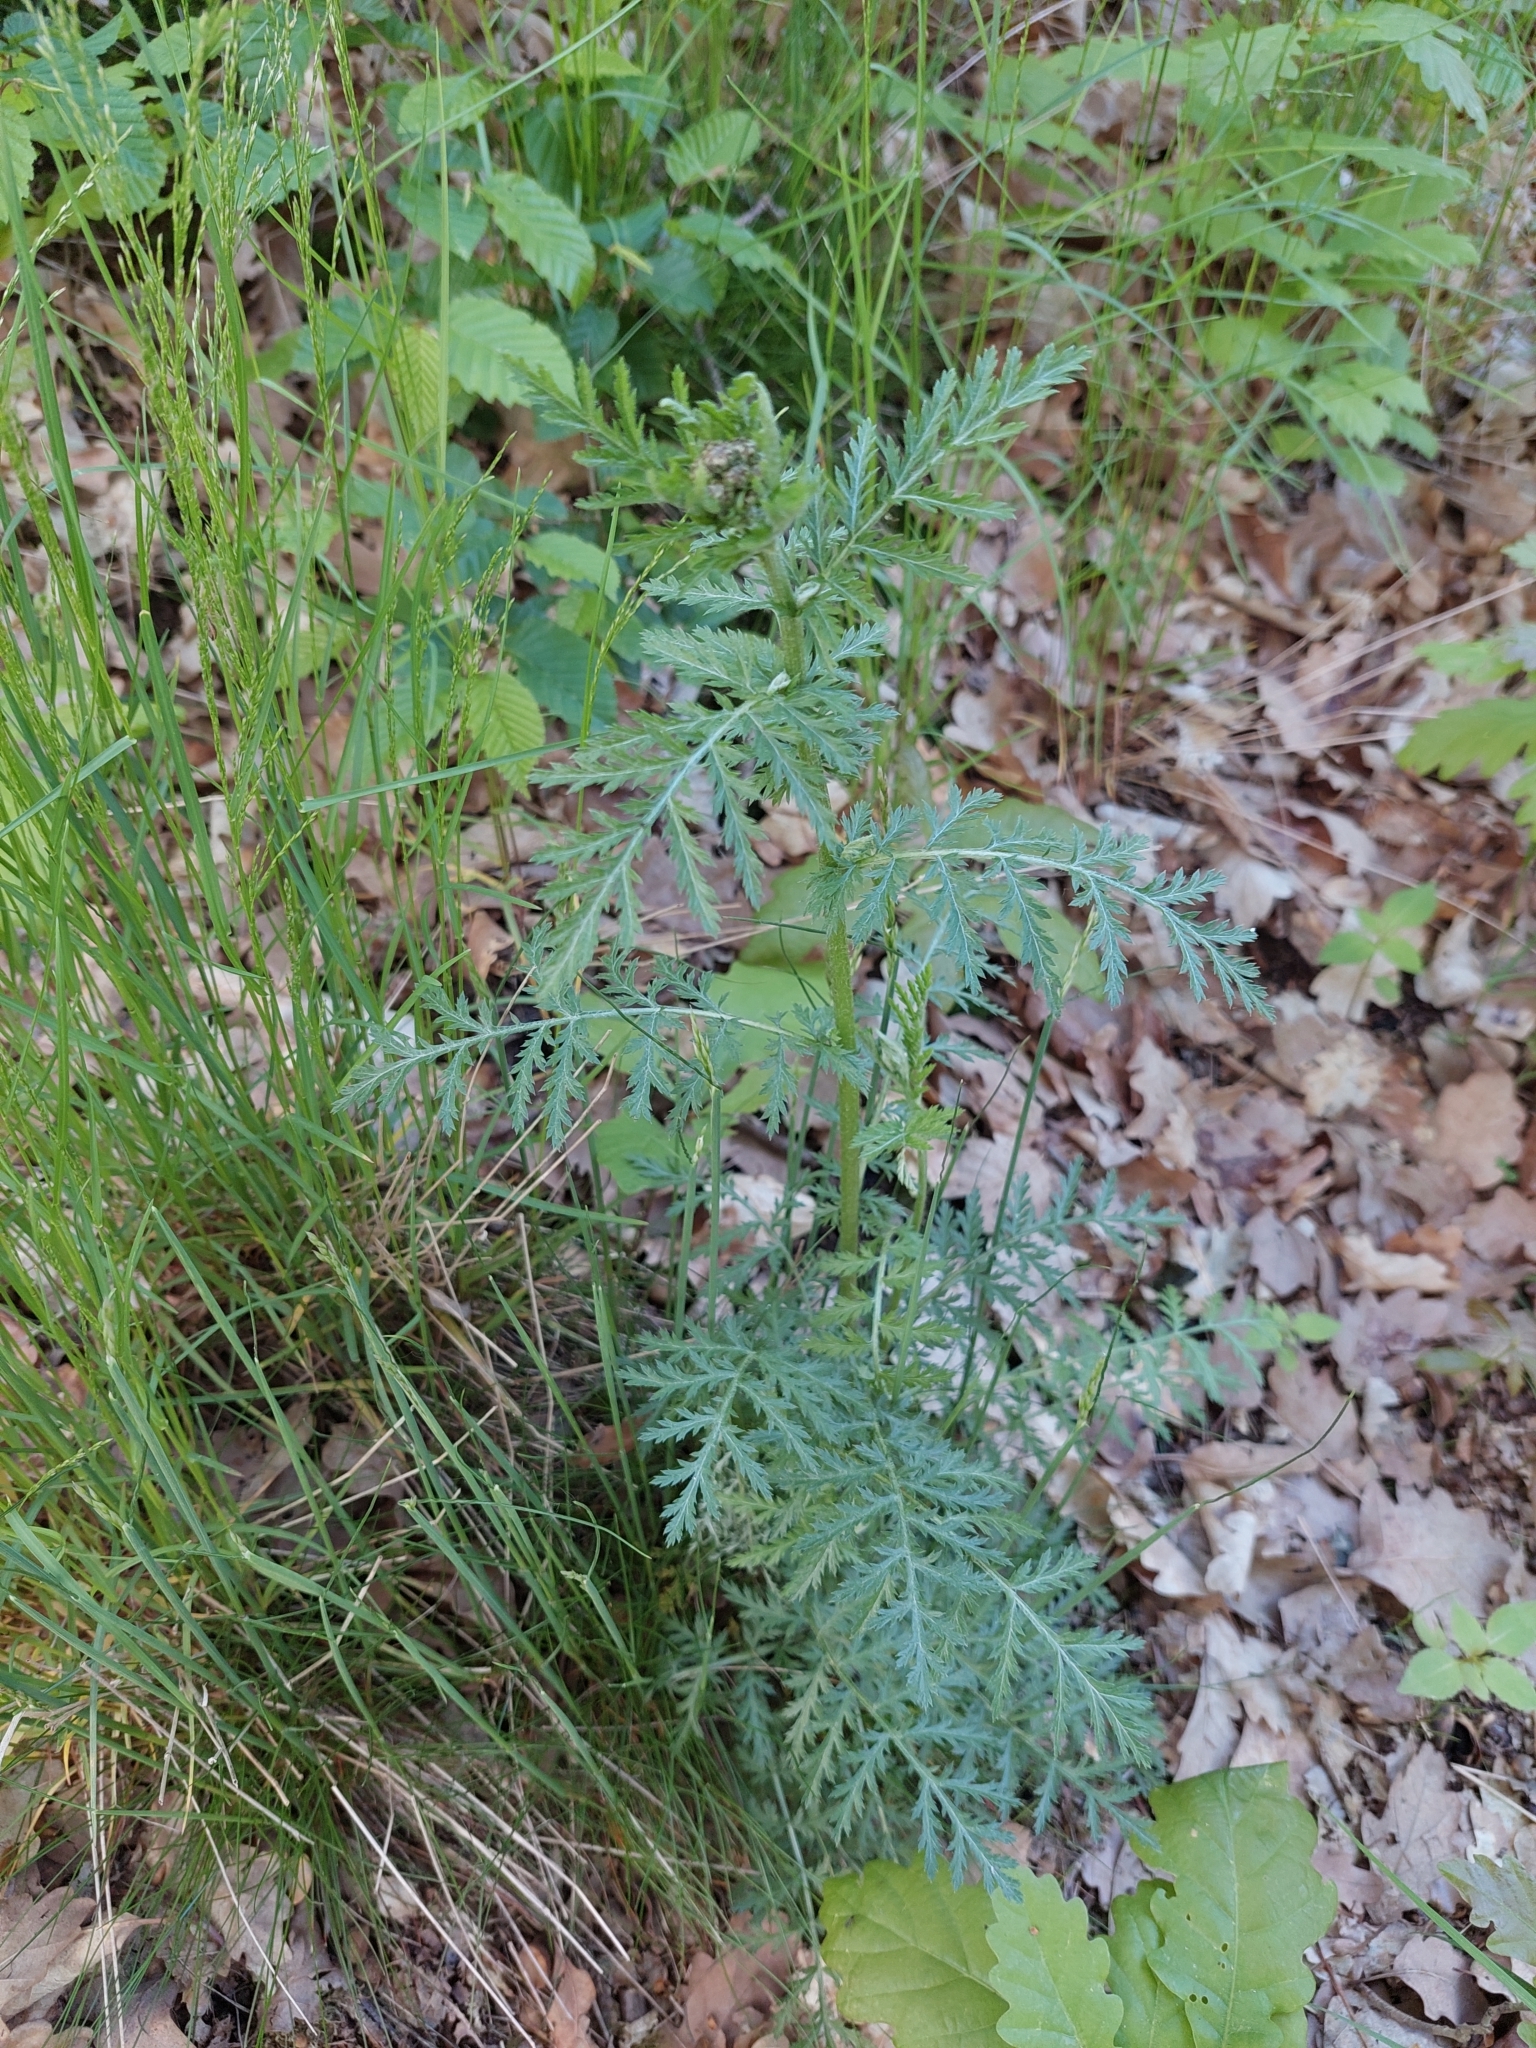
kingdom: Plantae
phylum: Tracheophyta
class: Magnoliopsida
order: Asterales
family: Asteraceae
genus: Tanacetum
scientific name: Tanacetum corymbosum
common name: Scentless feverfew
